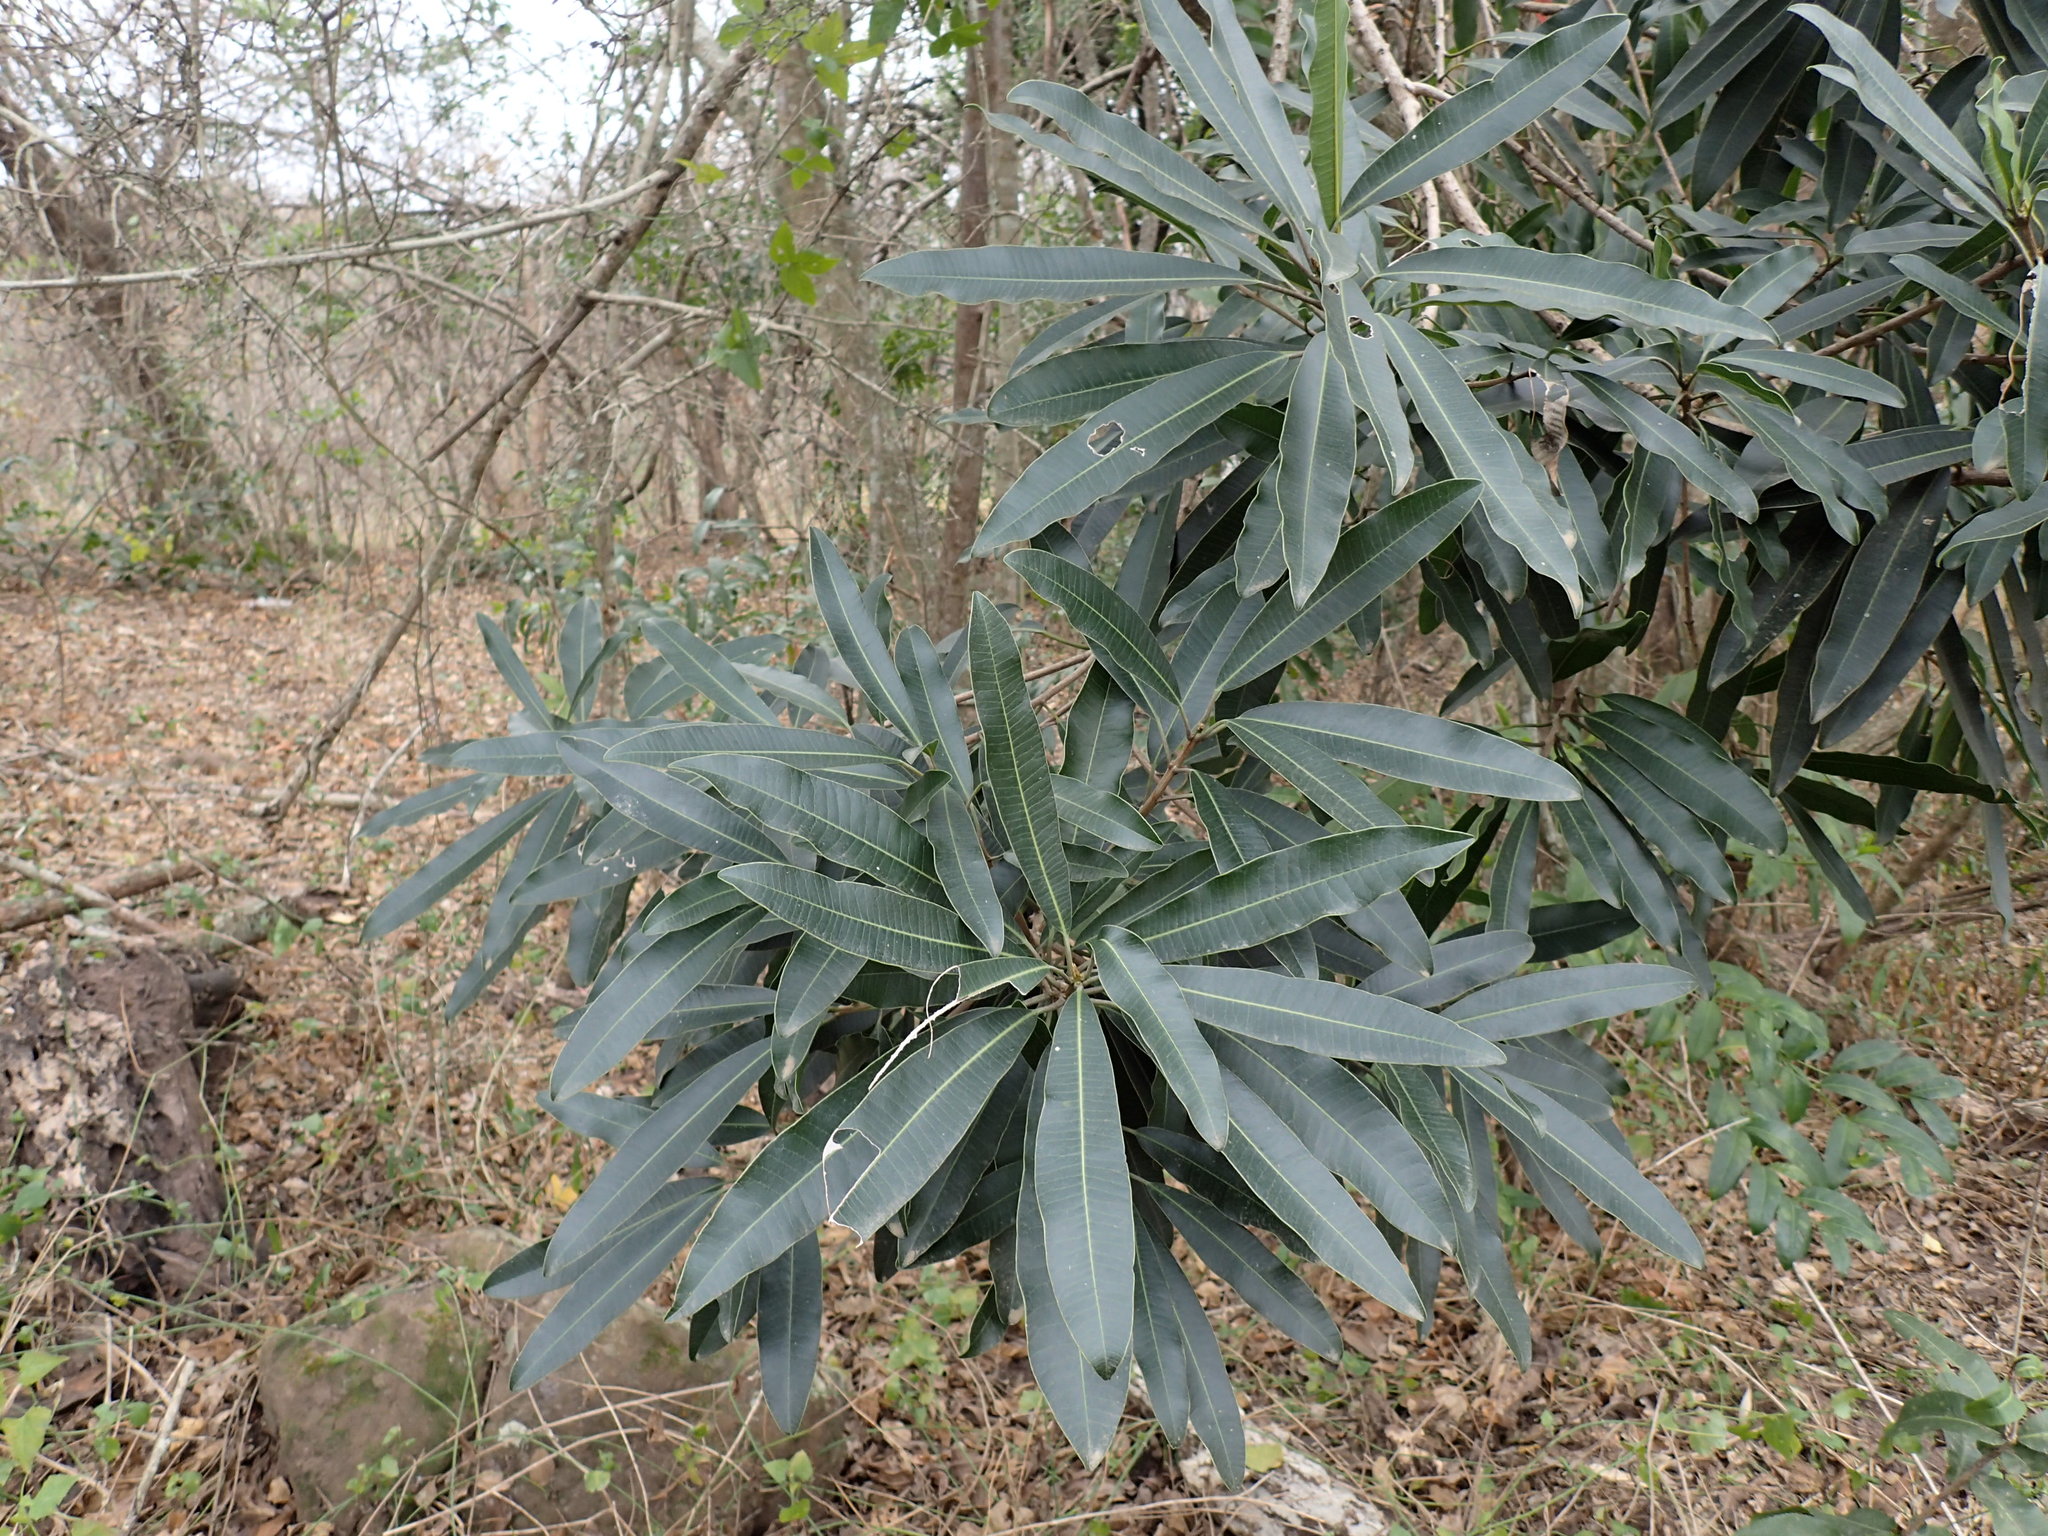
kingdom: Plantae
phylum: Tracheophyta
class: Magnoliopsida
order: Sapindales
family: Anacardiaceae
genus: Protorhus
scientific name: Protorhus longifolia
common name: Red-beech
